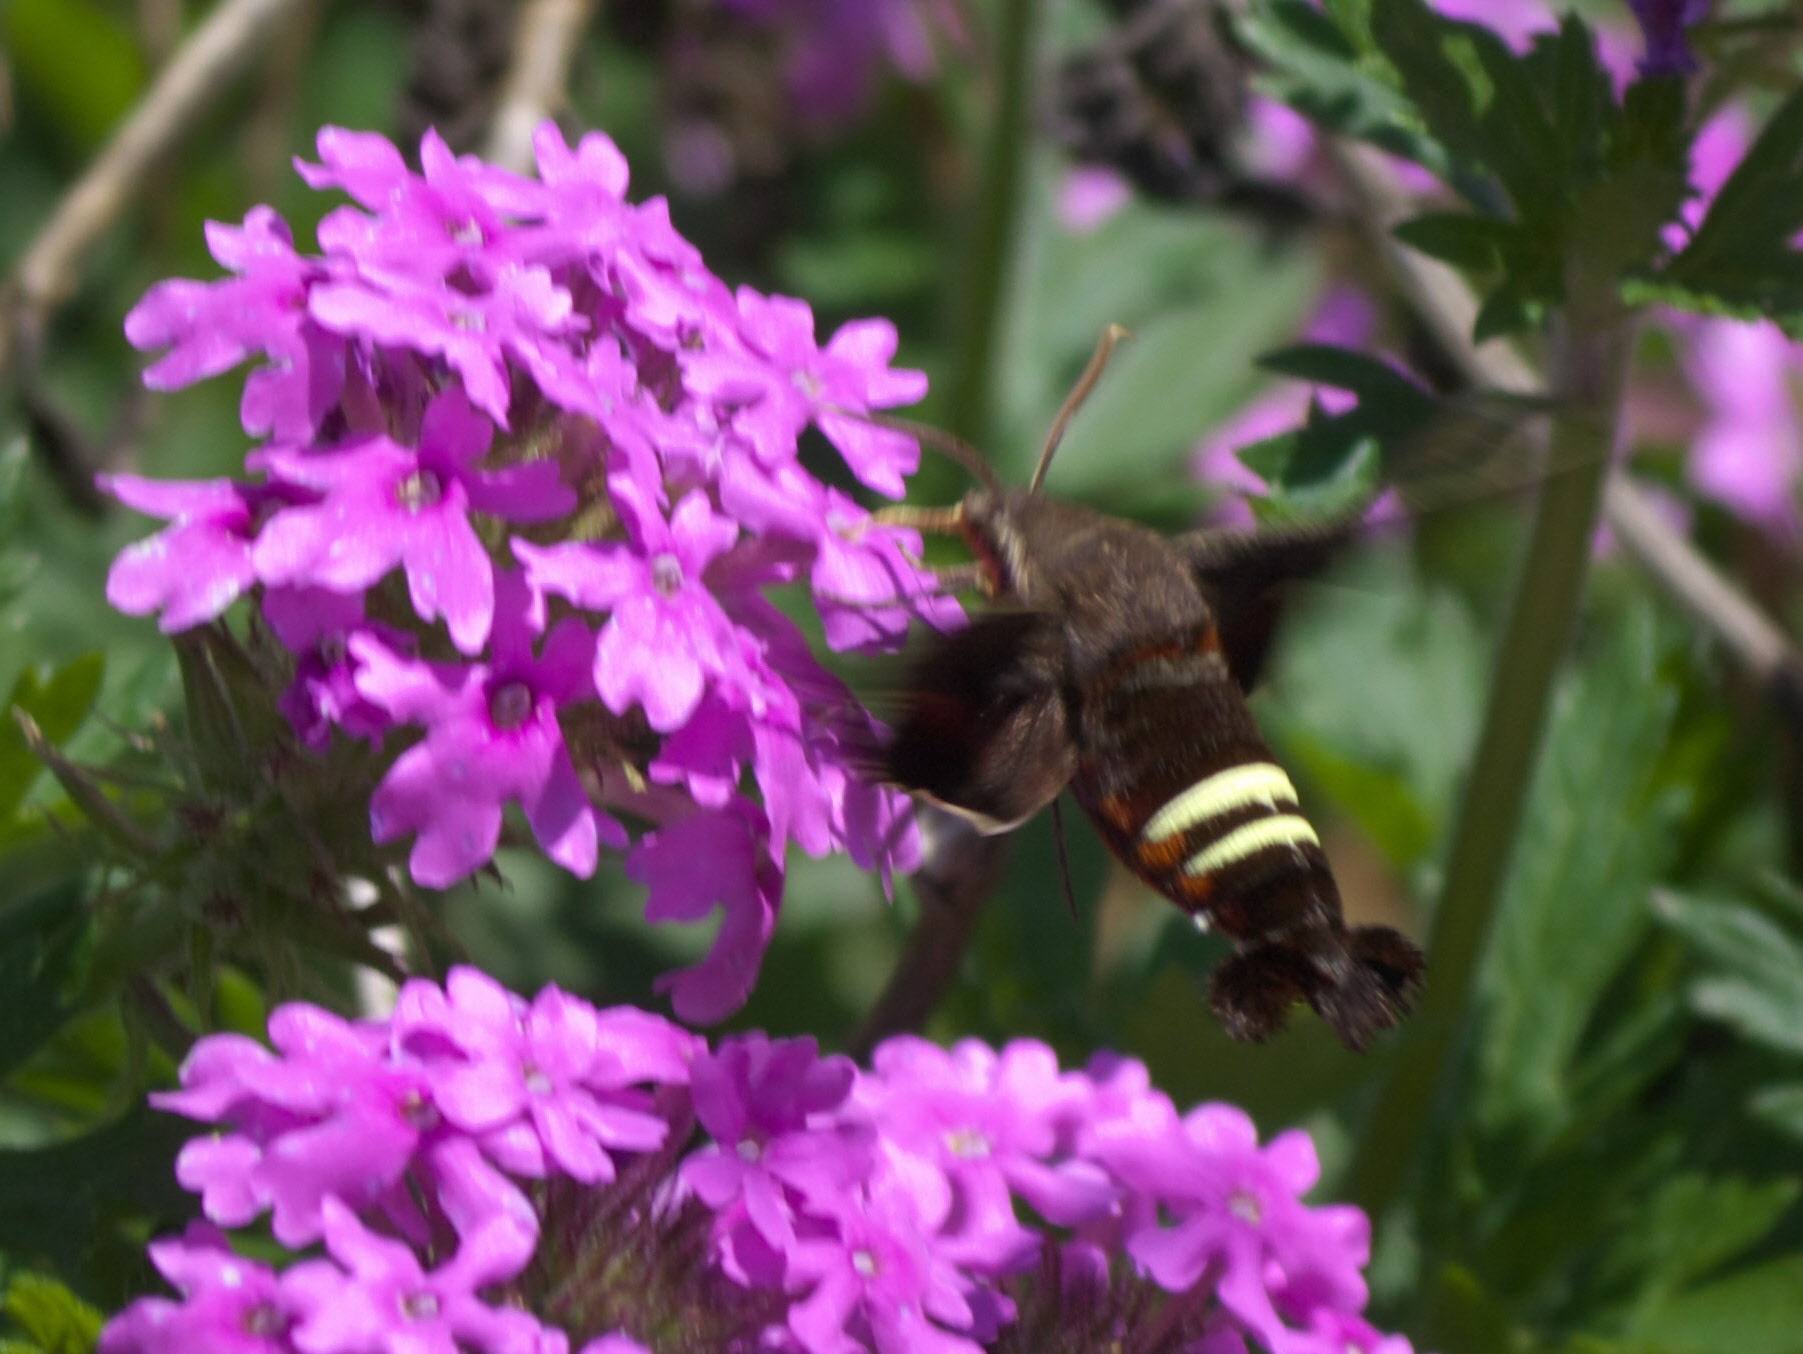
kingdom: Animalia
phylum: Arthropoda
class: Insecta
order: Lepidoptera
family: Sphingidae
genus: Amphion
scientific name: Amphion floridensis
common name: Nessus sphinx
